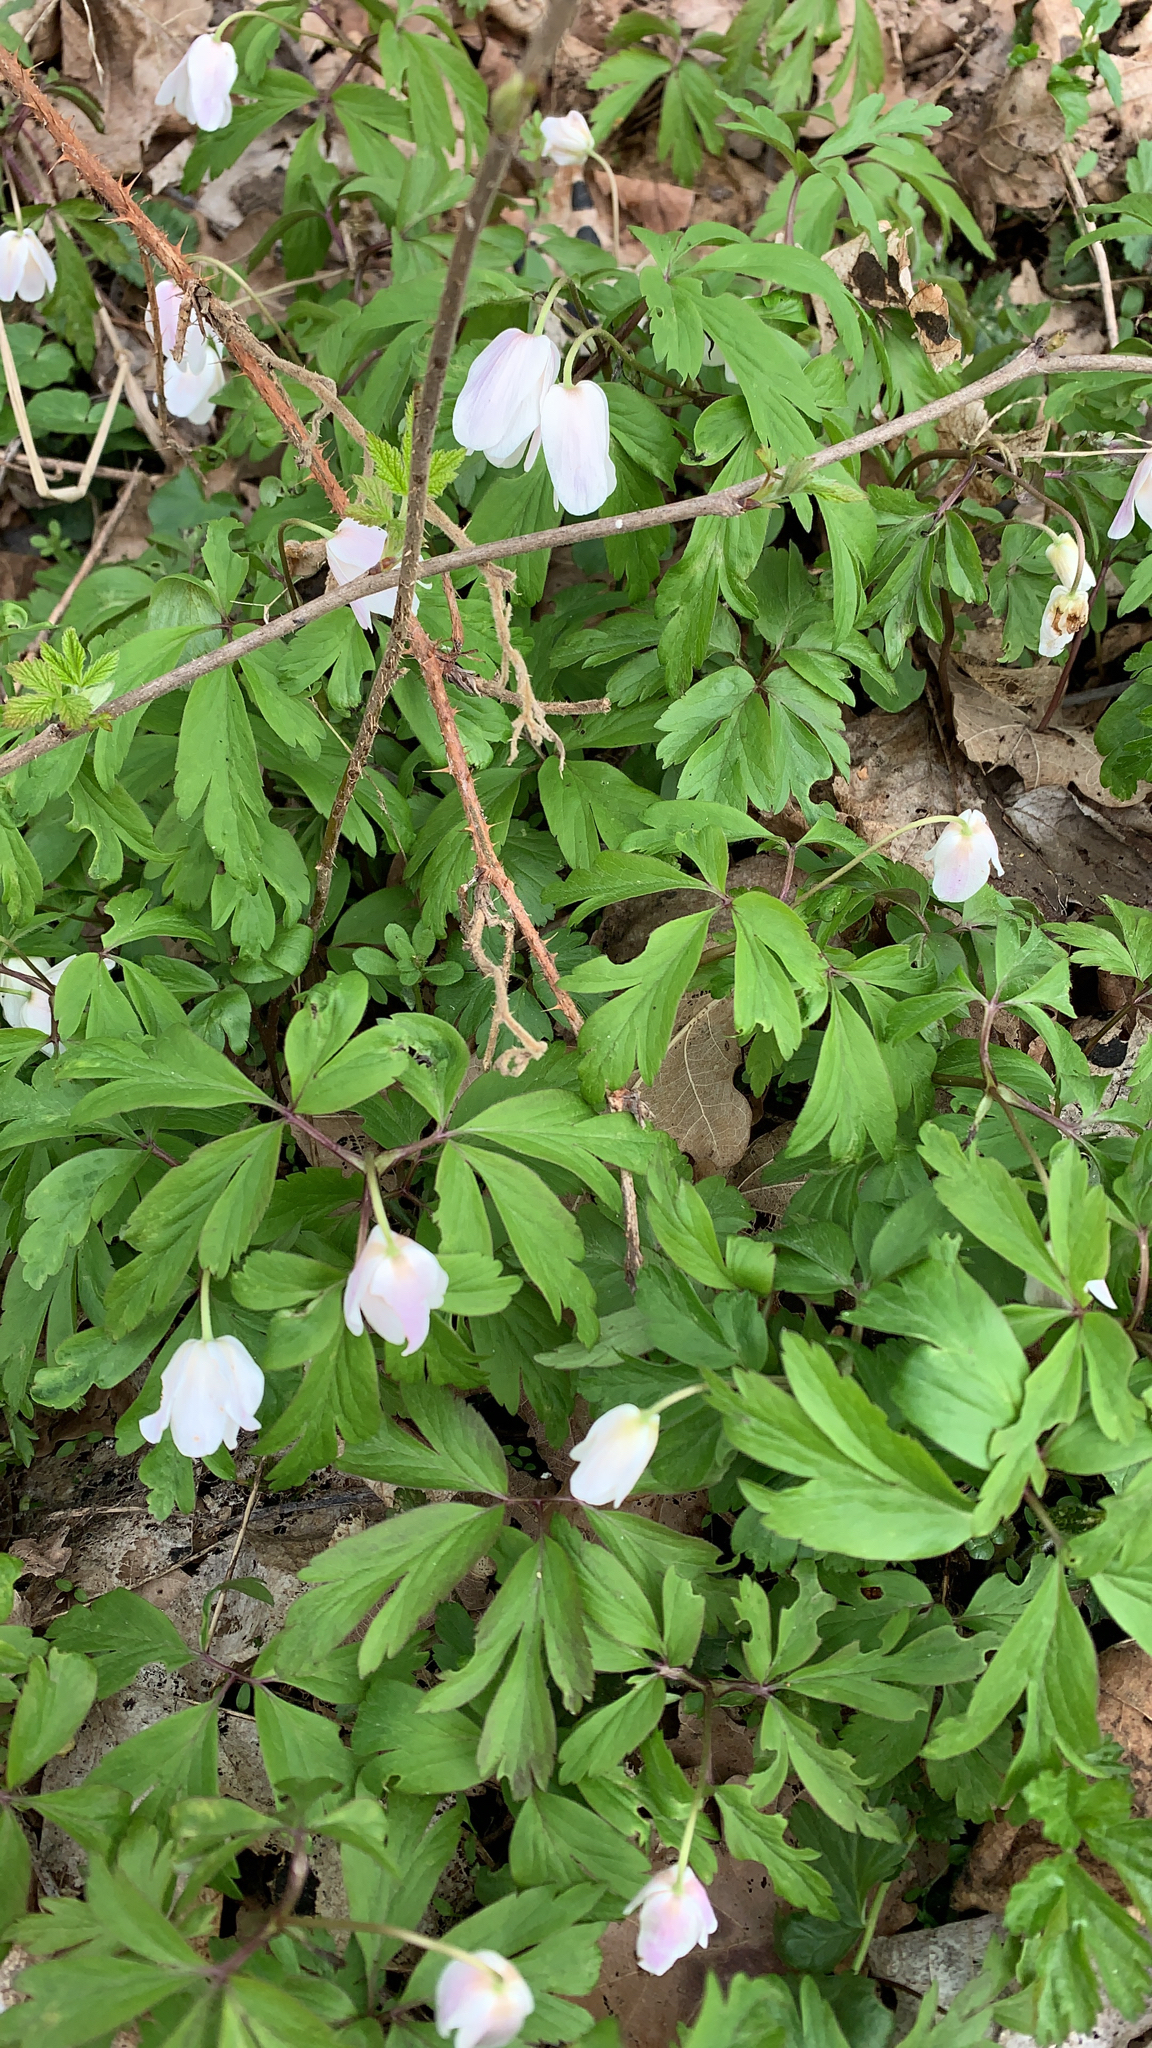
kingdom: Plantae
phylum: Tracheophyta
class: Magnoliopsida
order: Ranunculales
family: Ranunculaceae
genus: Anemone
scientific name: Anemone nemorosa
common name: Wood anemone
